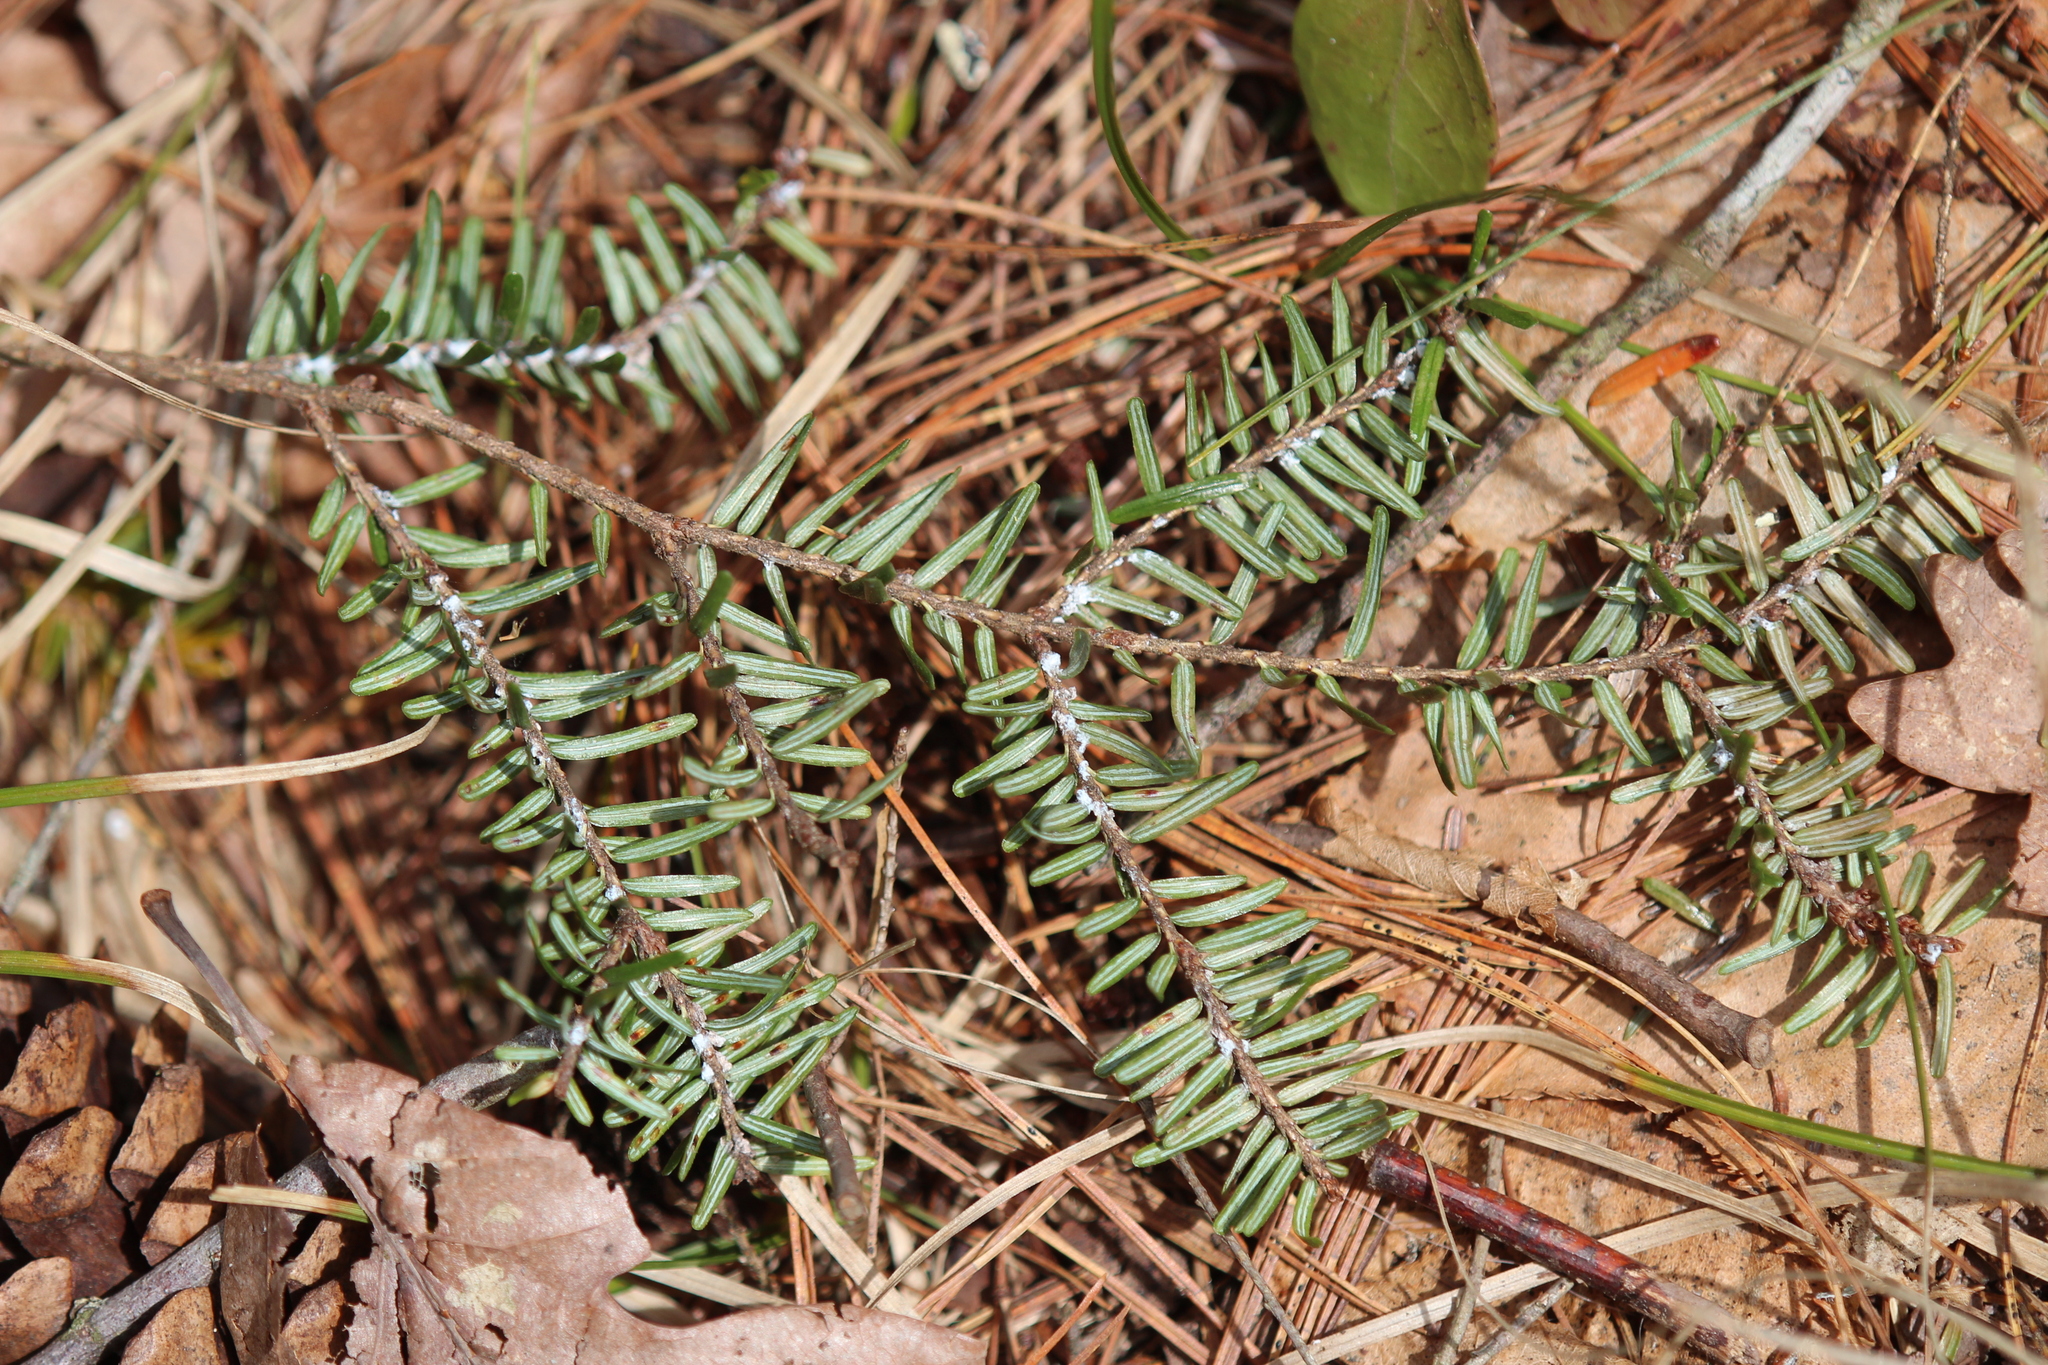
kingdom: Animalia
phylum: Arthropoda
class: Insecta
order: Hemiptera
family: Adelgidae
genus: Adelges
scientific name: Adelges tsugae
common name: Hemlock woolly adelgid
